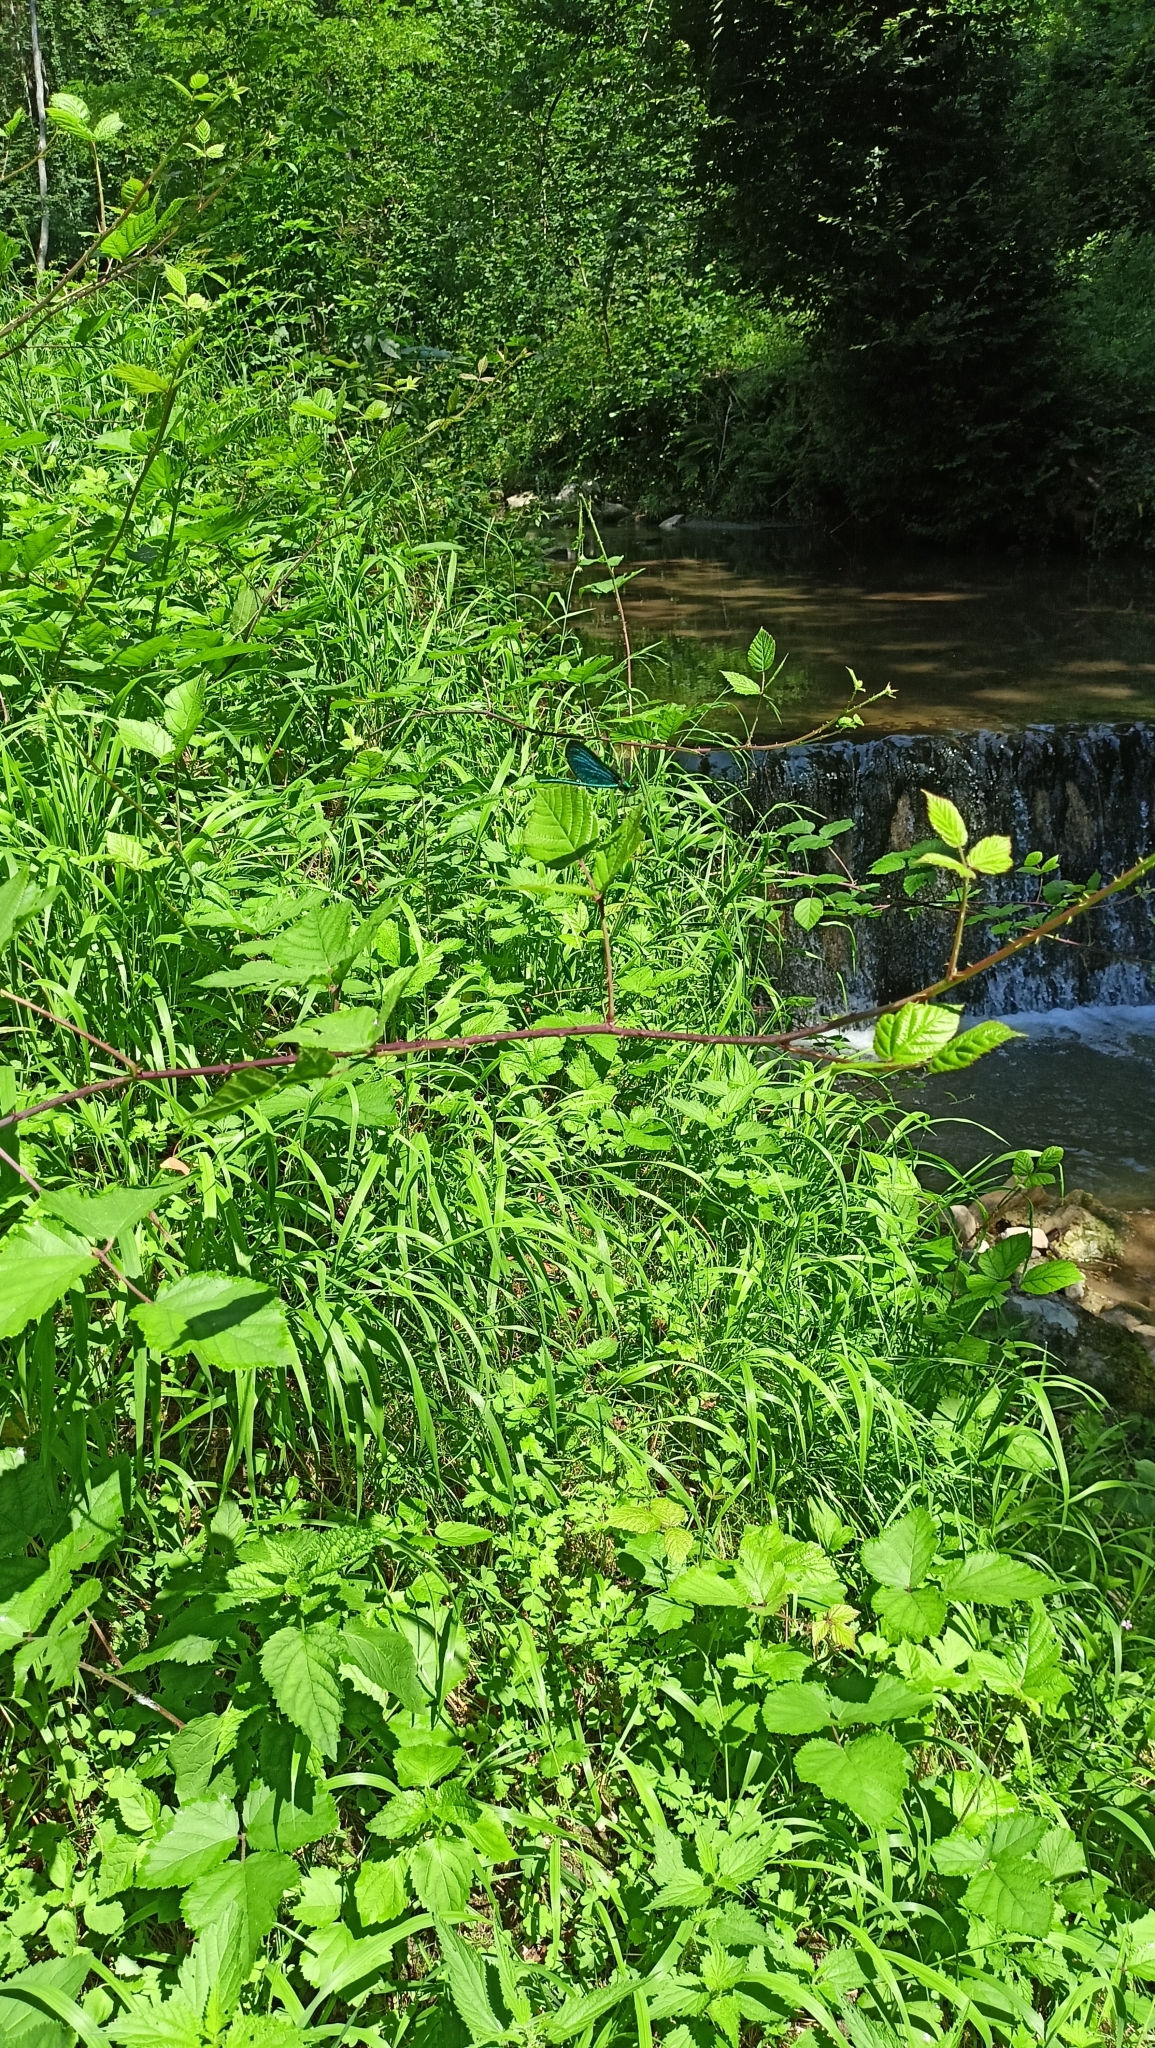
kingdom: Animalia
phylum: Arthropoda
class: Insecta
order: Odonata
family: Calopterygidae
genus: Calopteryx
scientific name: Calopteryx virgo
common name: Beautiful demoiselle
